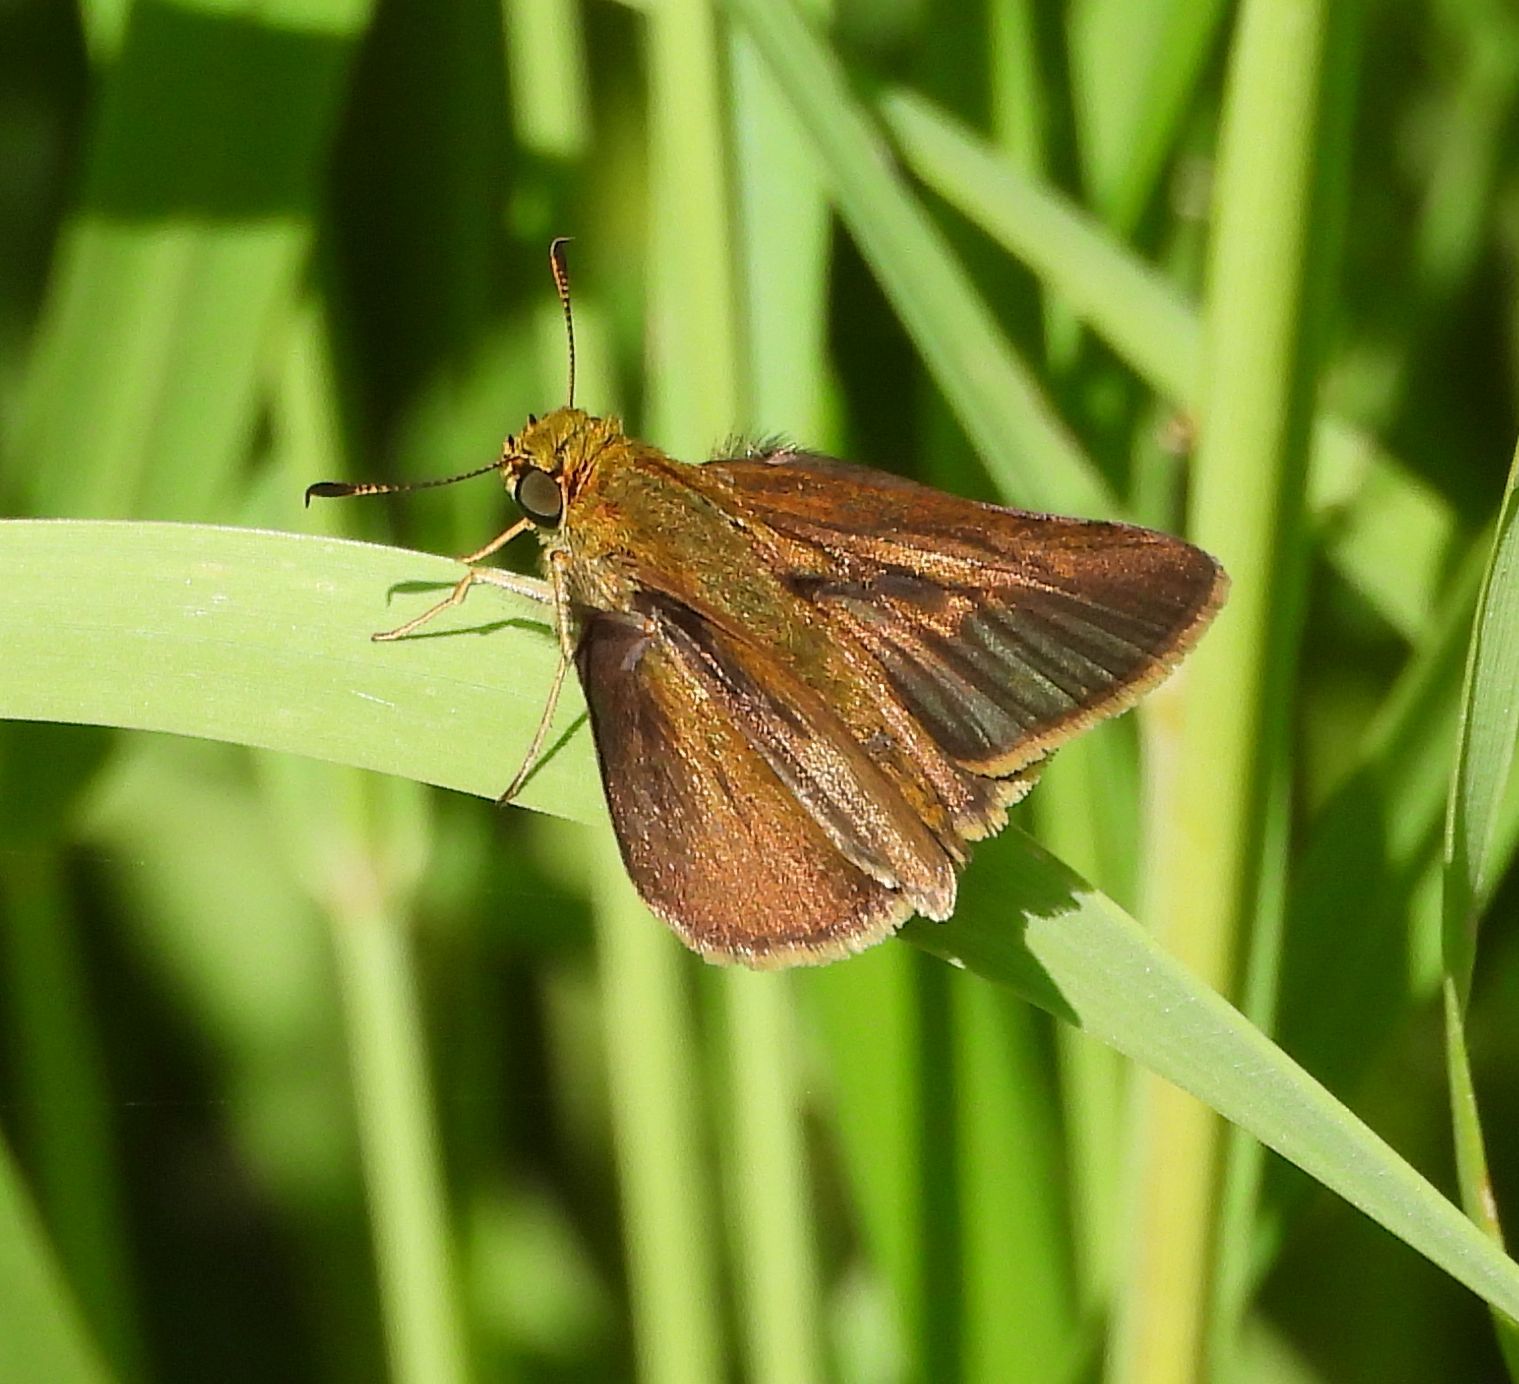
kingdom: Animalia
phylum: Arthropoda
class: Insecta
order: Lepidoptera
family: Hesperiidae
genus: Euphyes
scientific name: Euphyes vestris
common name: Dun skipper
